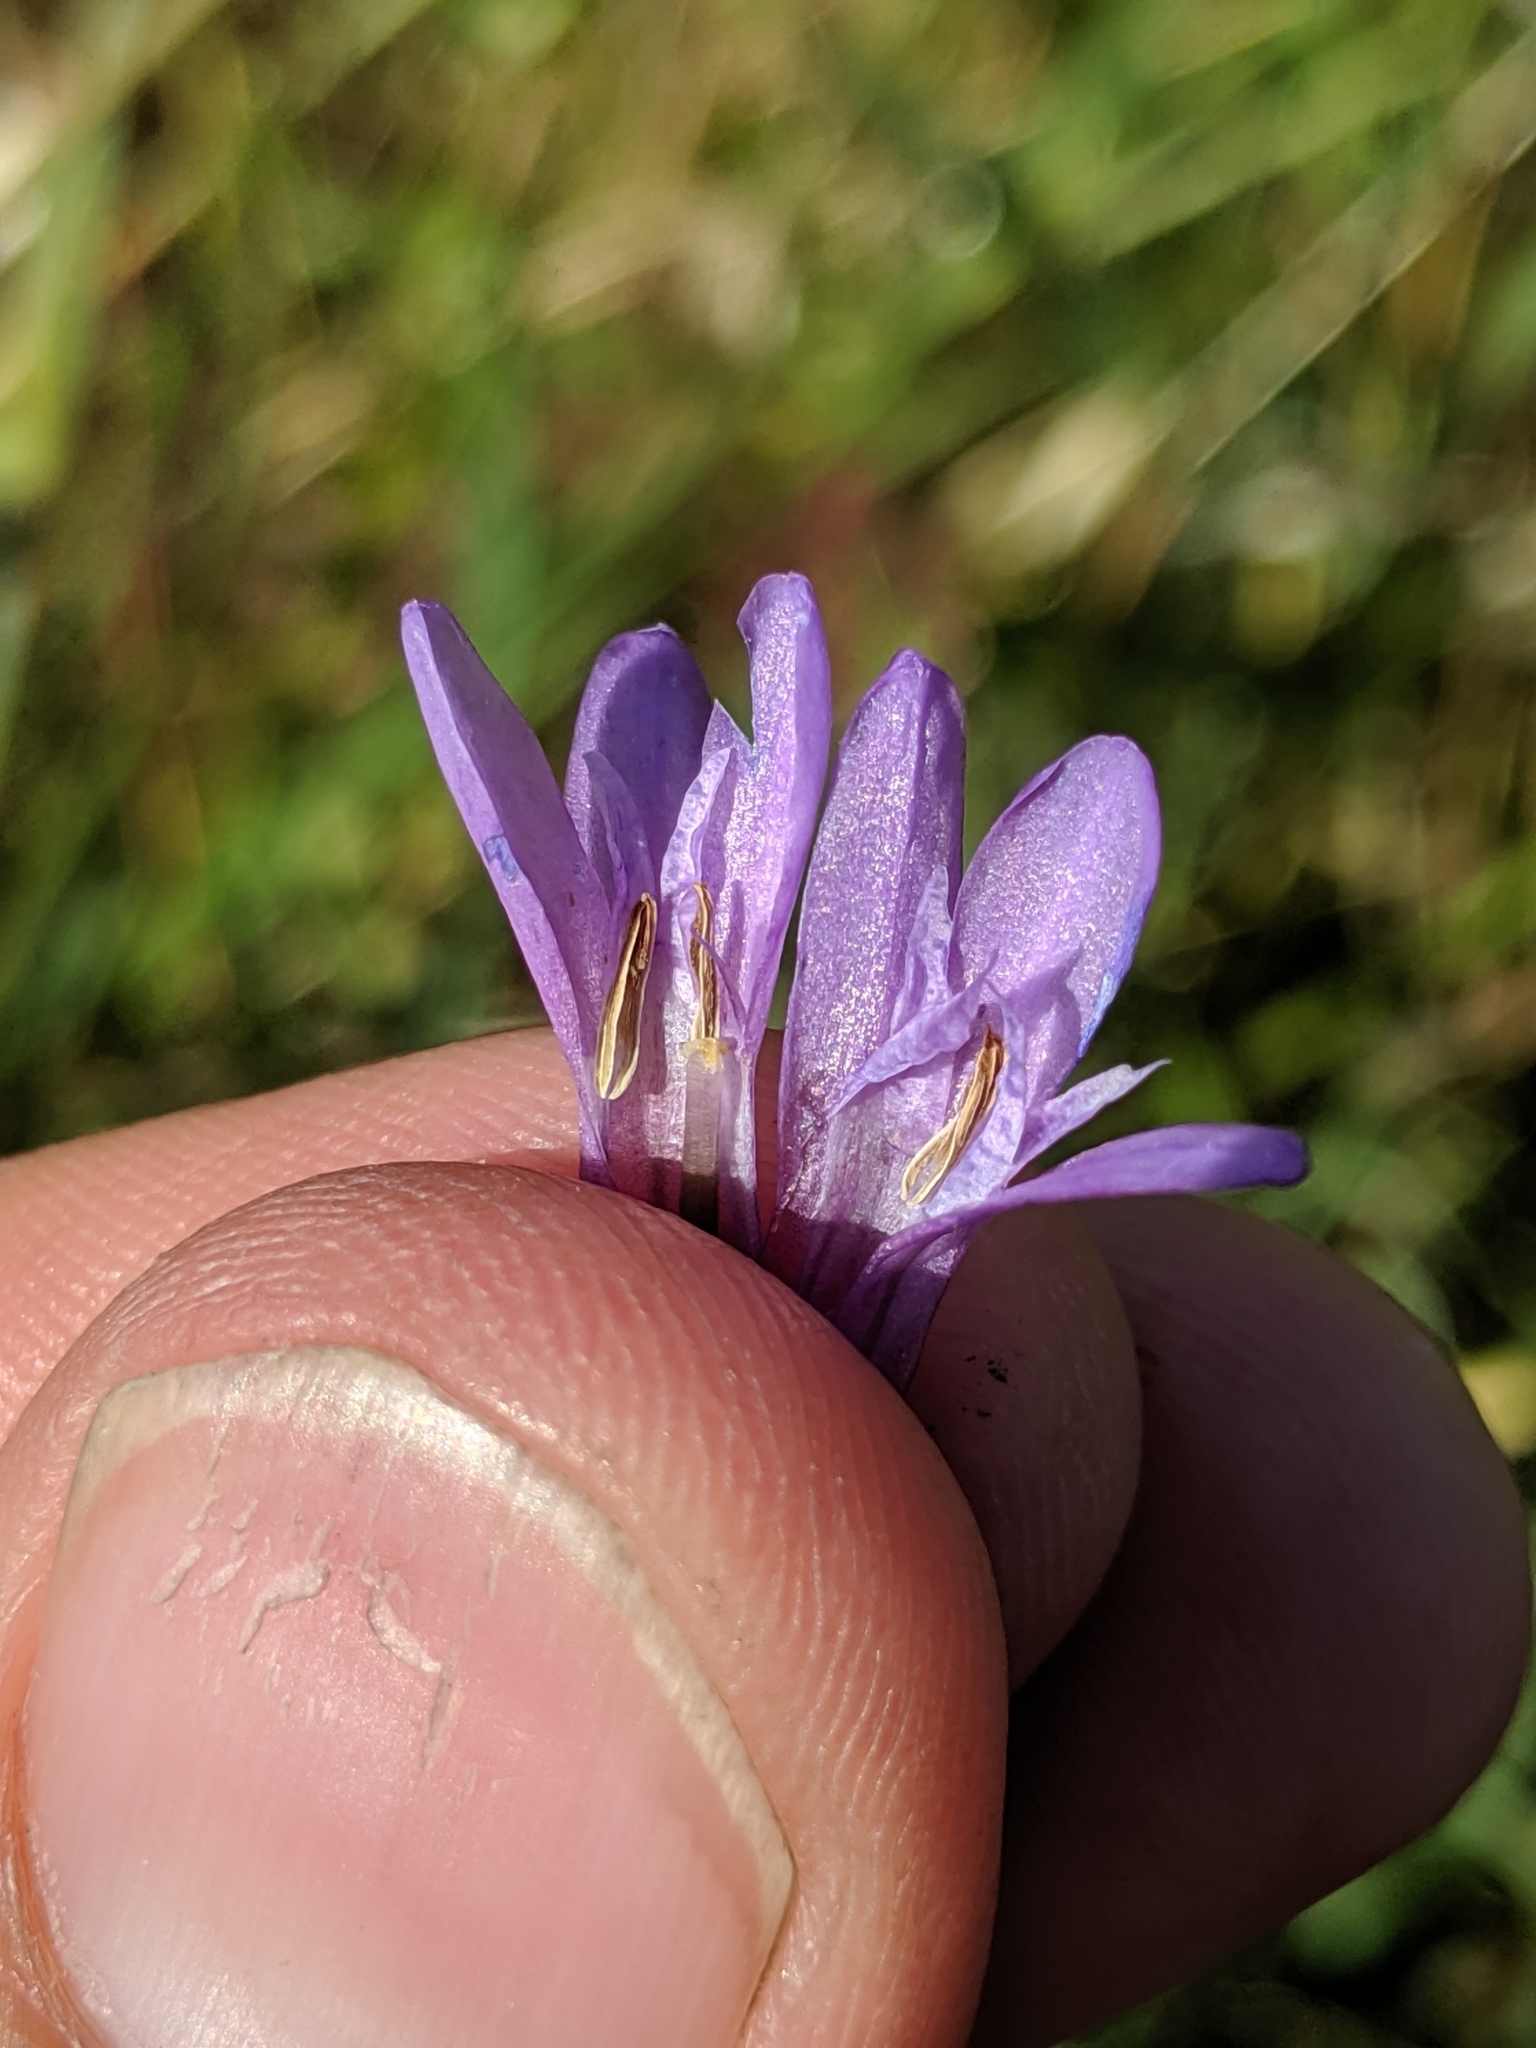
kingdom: Plantae
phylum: Tracheophyta
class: Liliopsida
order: Asparagales
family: Asparagaceae
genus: Dichelostemma
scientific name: Dichelostemma congestum
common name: Fork-tooth ookow
